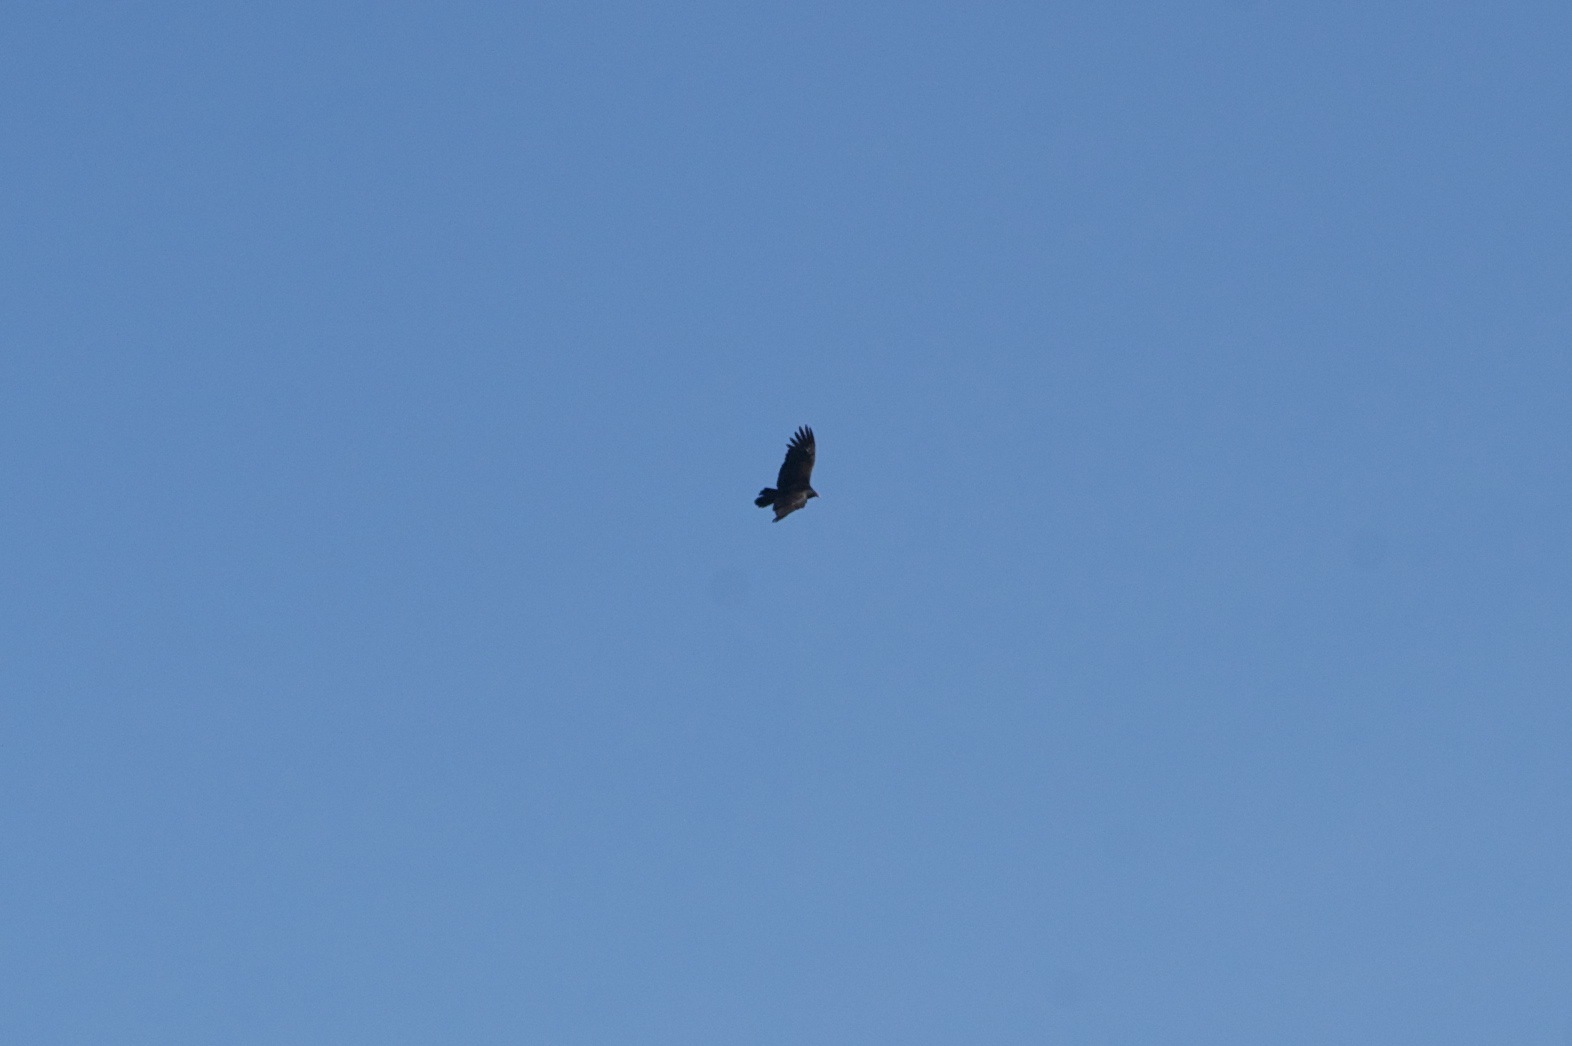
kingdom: Animalia
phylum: Chordata
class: Aves
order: Accipitriformes
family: Cathartidae
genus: Cathartes
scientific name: Cathartes aura
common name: Turkey vulture
